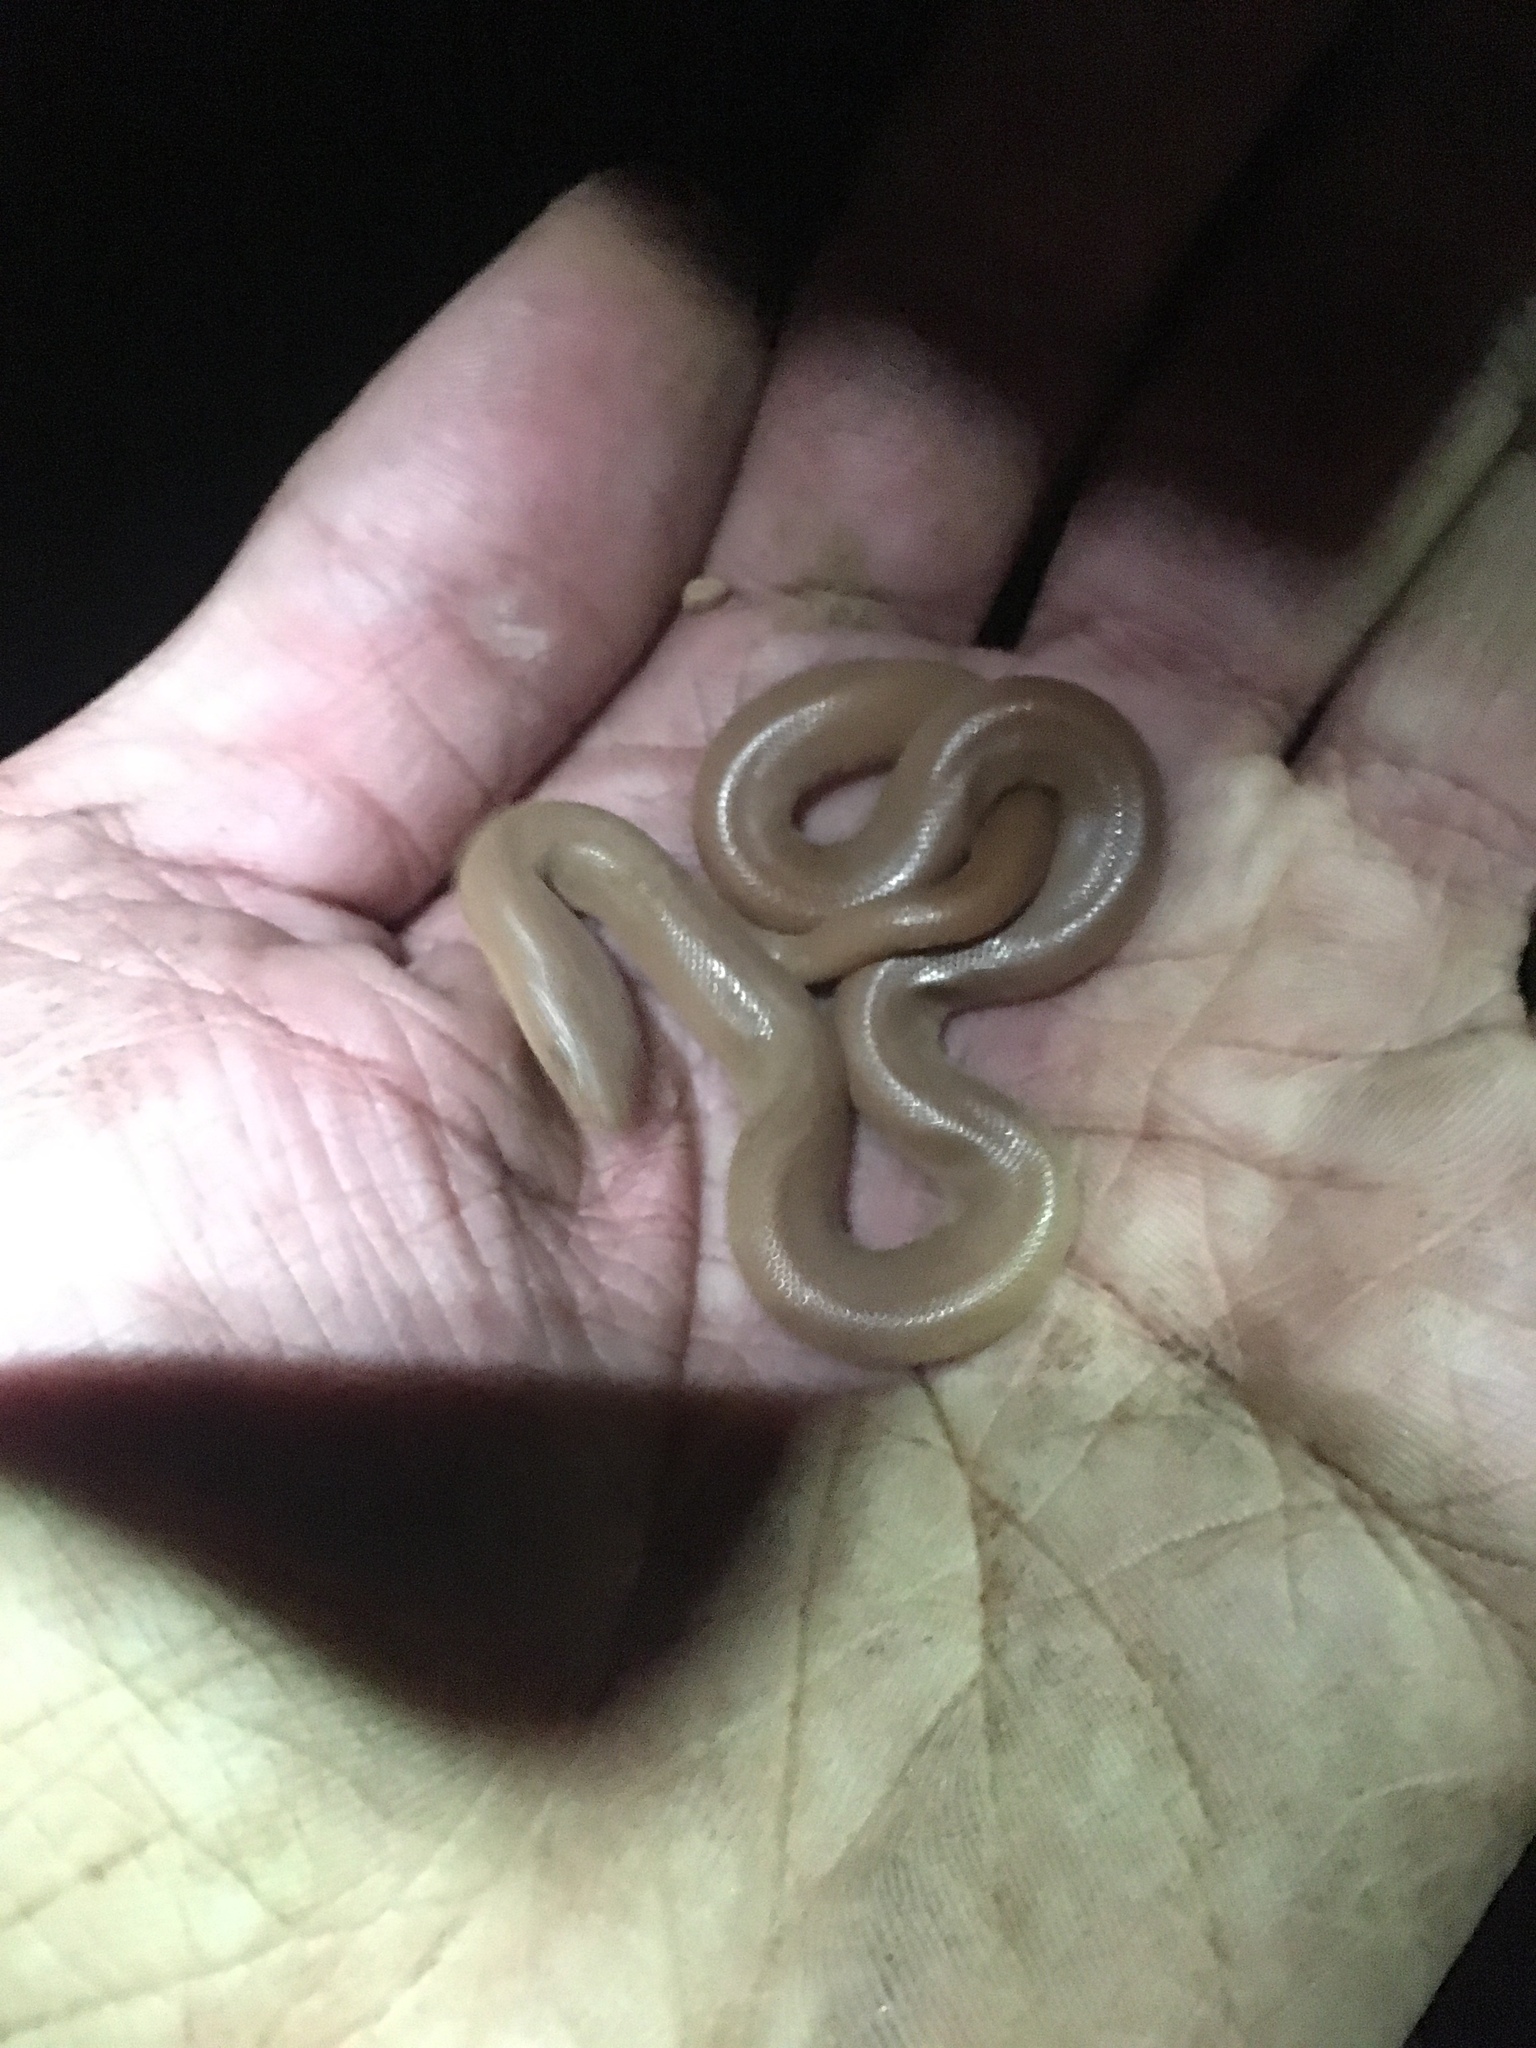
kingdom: Animalia
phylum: Chordata
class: Squamata
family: Boidae
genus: Charina
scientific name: Charina bottae
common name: Northern rubber boa
